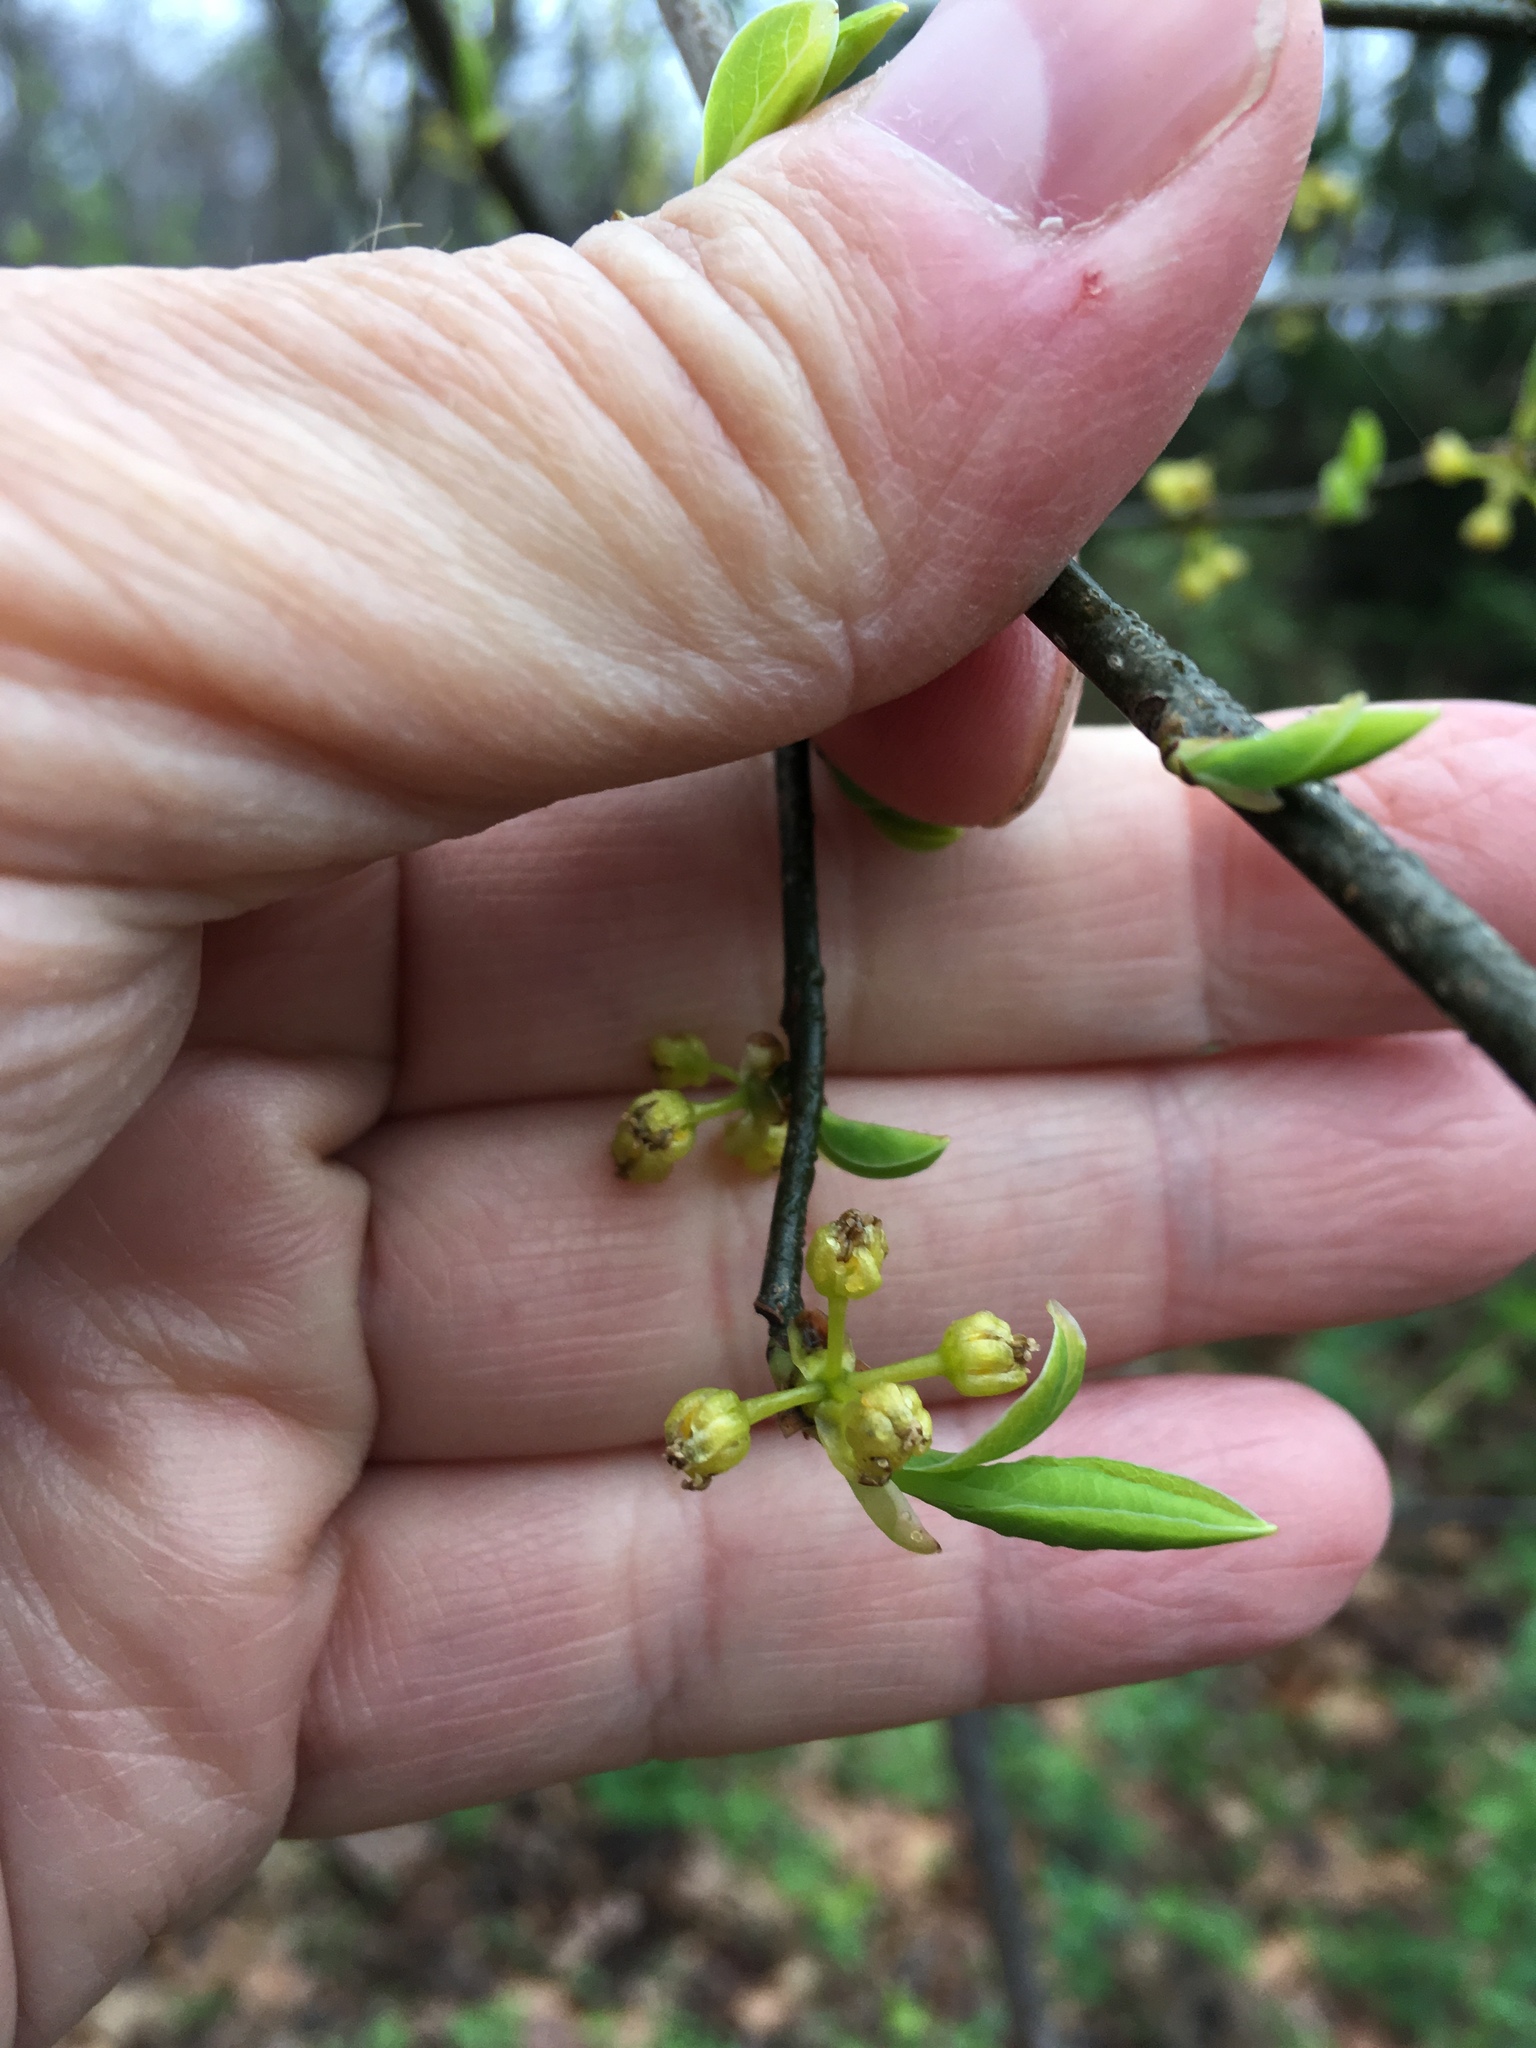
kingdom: Plantae
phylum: Tracheophyta
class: Magnoliopsida
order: Laurales
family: Lauraceae
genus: Lindera
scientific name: Lindera benzoin
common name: Spicebush
